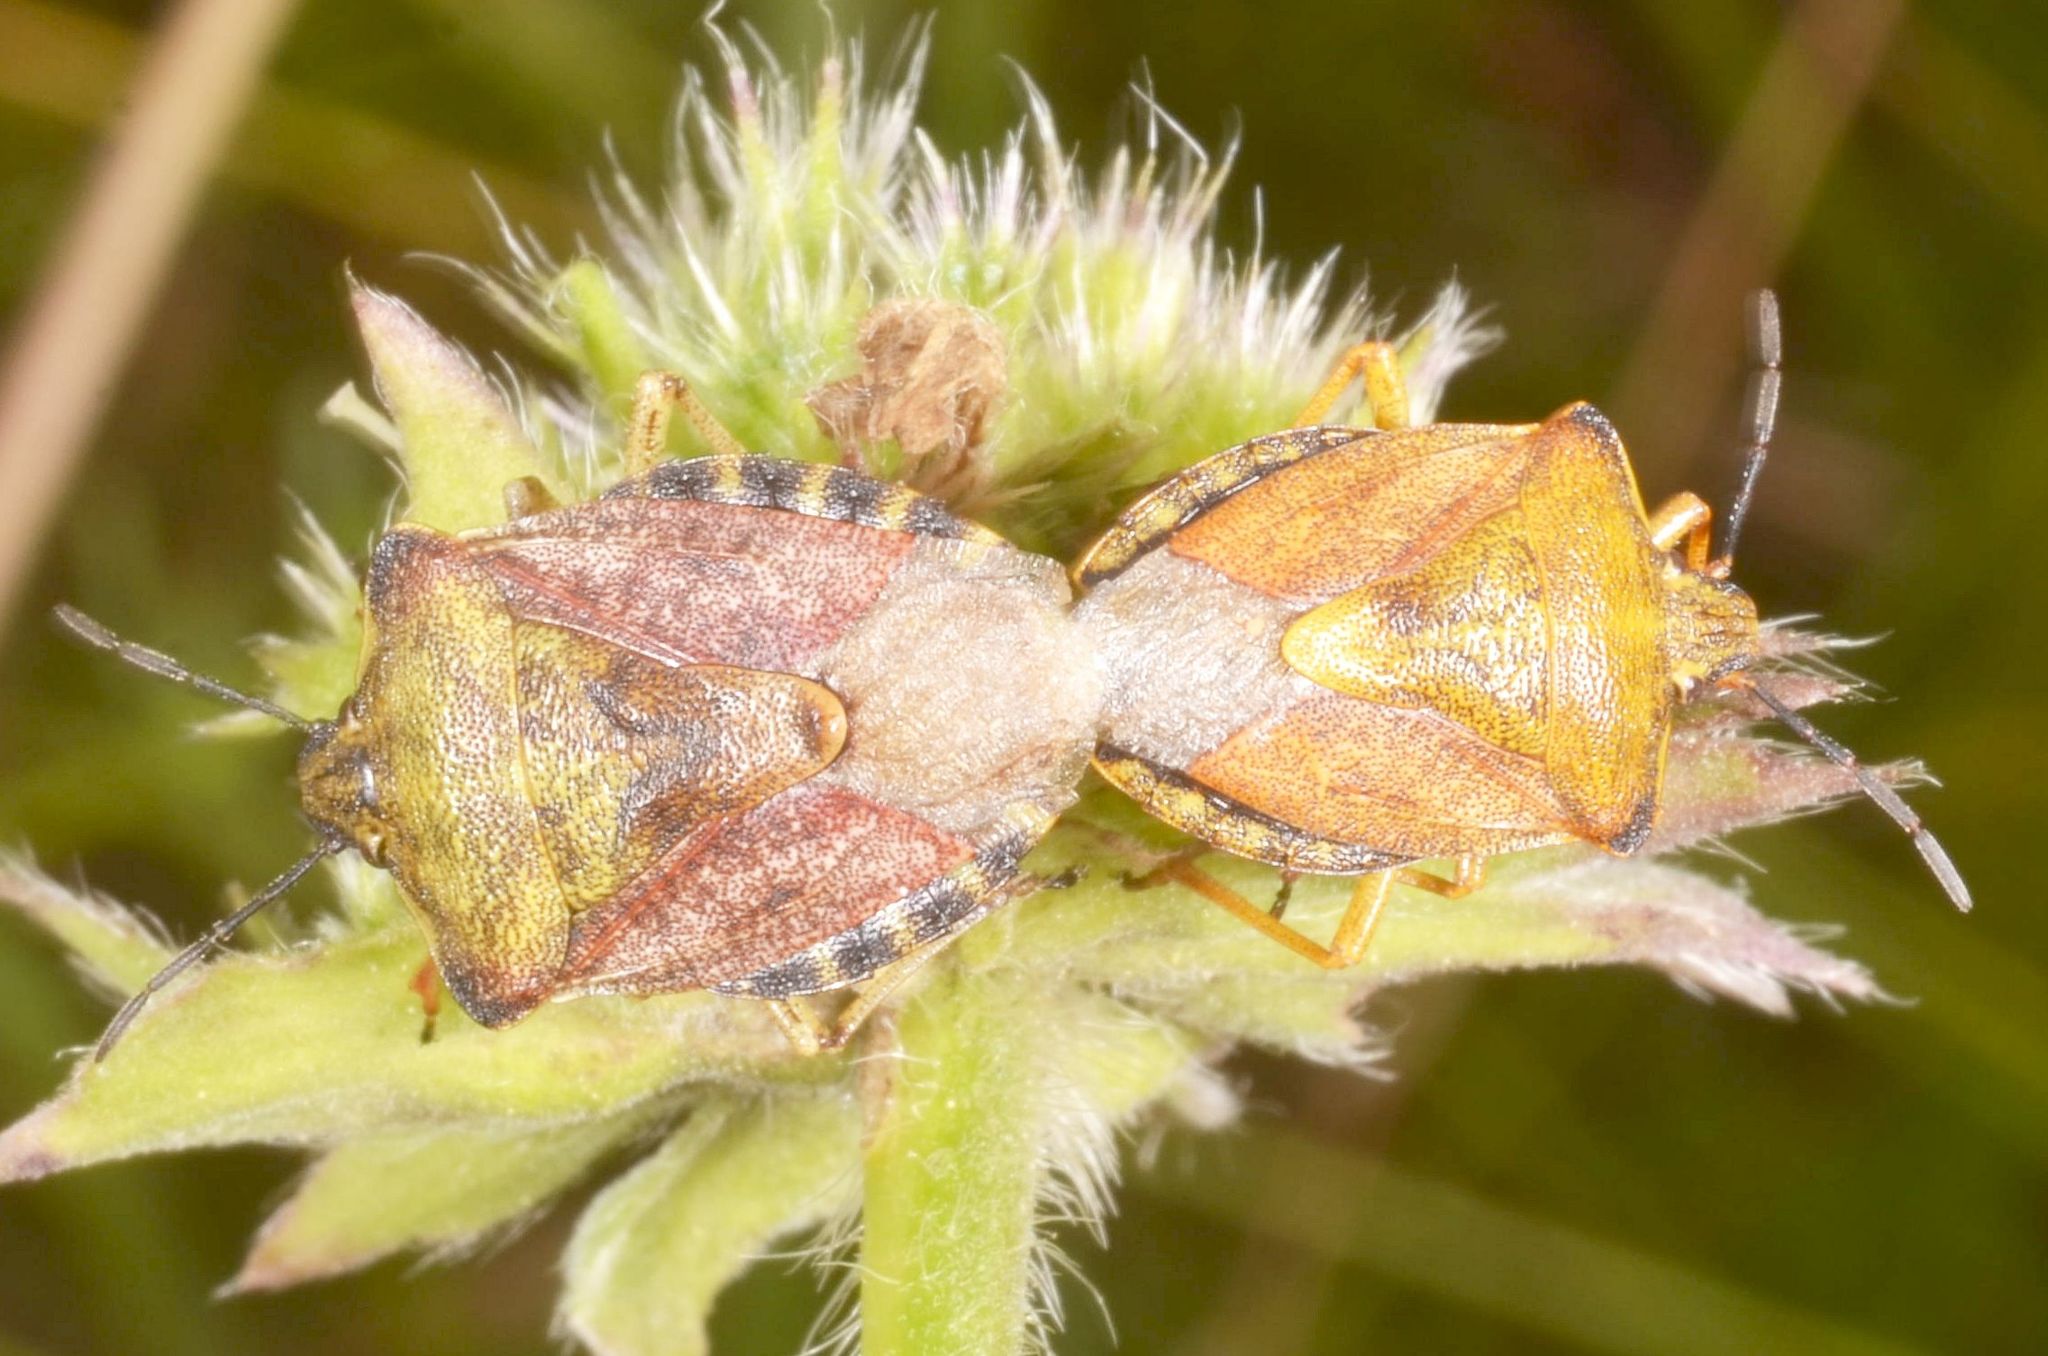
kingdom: Animalia
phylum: Arthropoda
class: Insecta
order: Hemiptera
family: Pentatomidae
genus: Carpocoris
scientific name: Carpocoris purpureipennis
